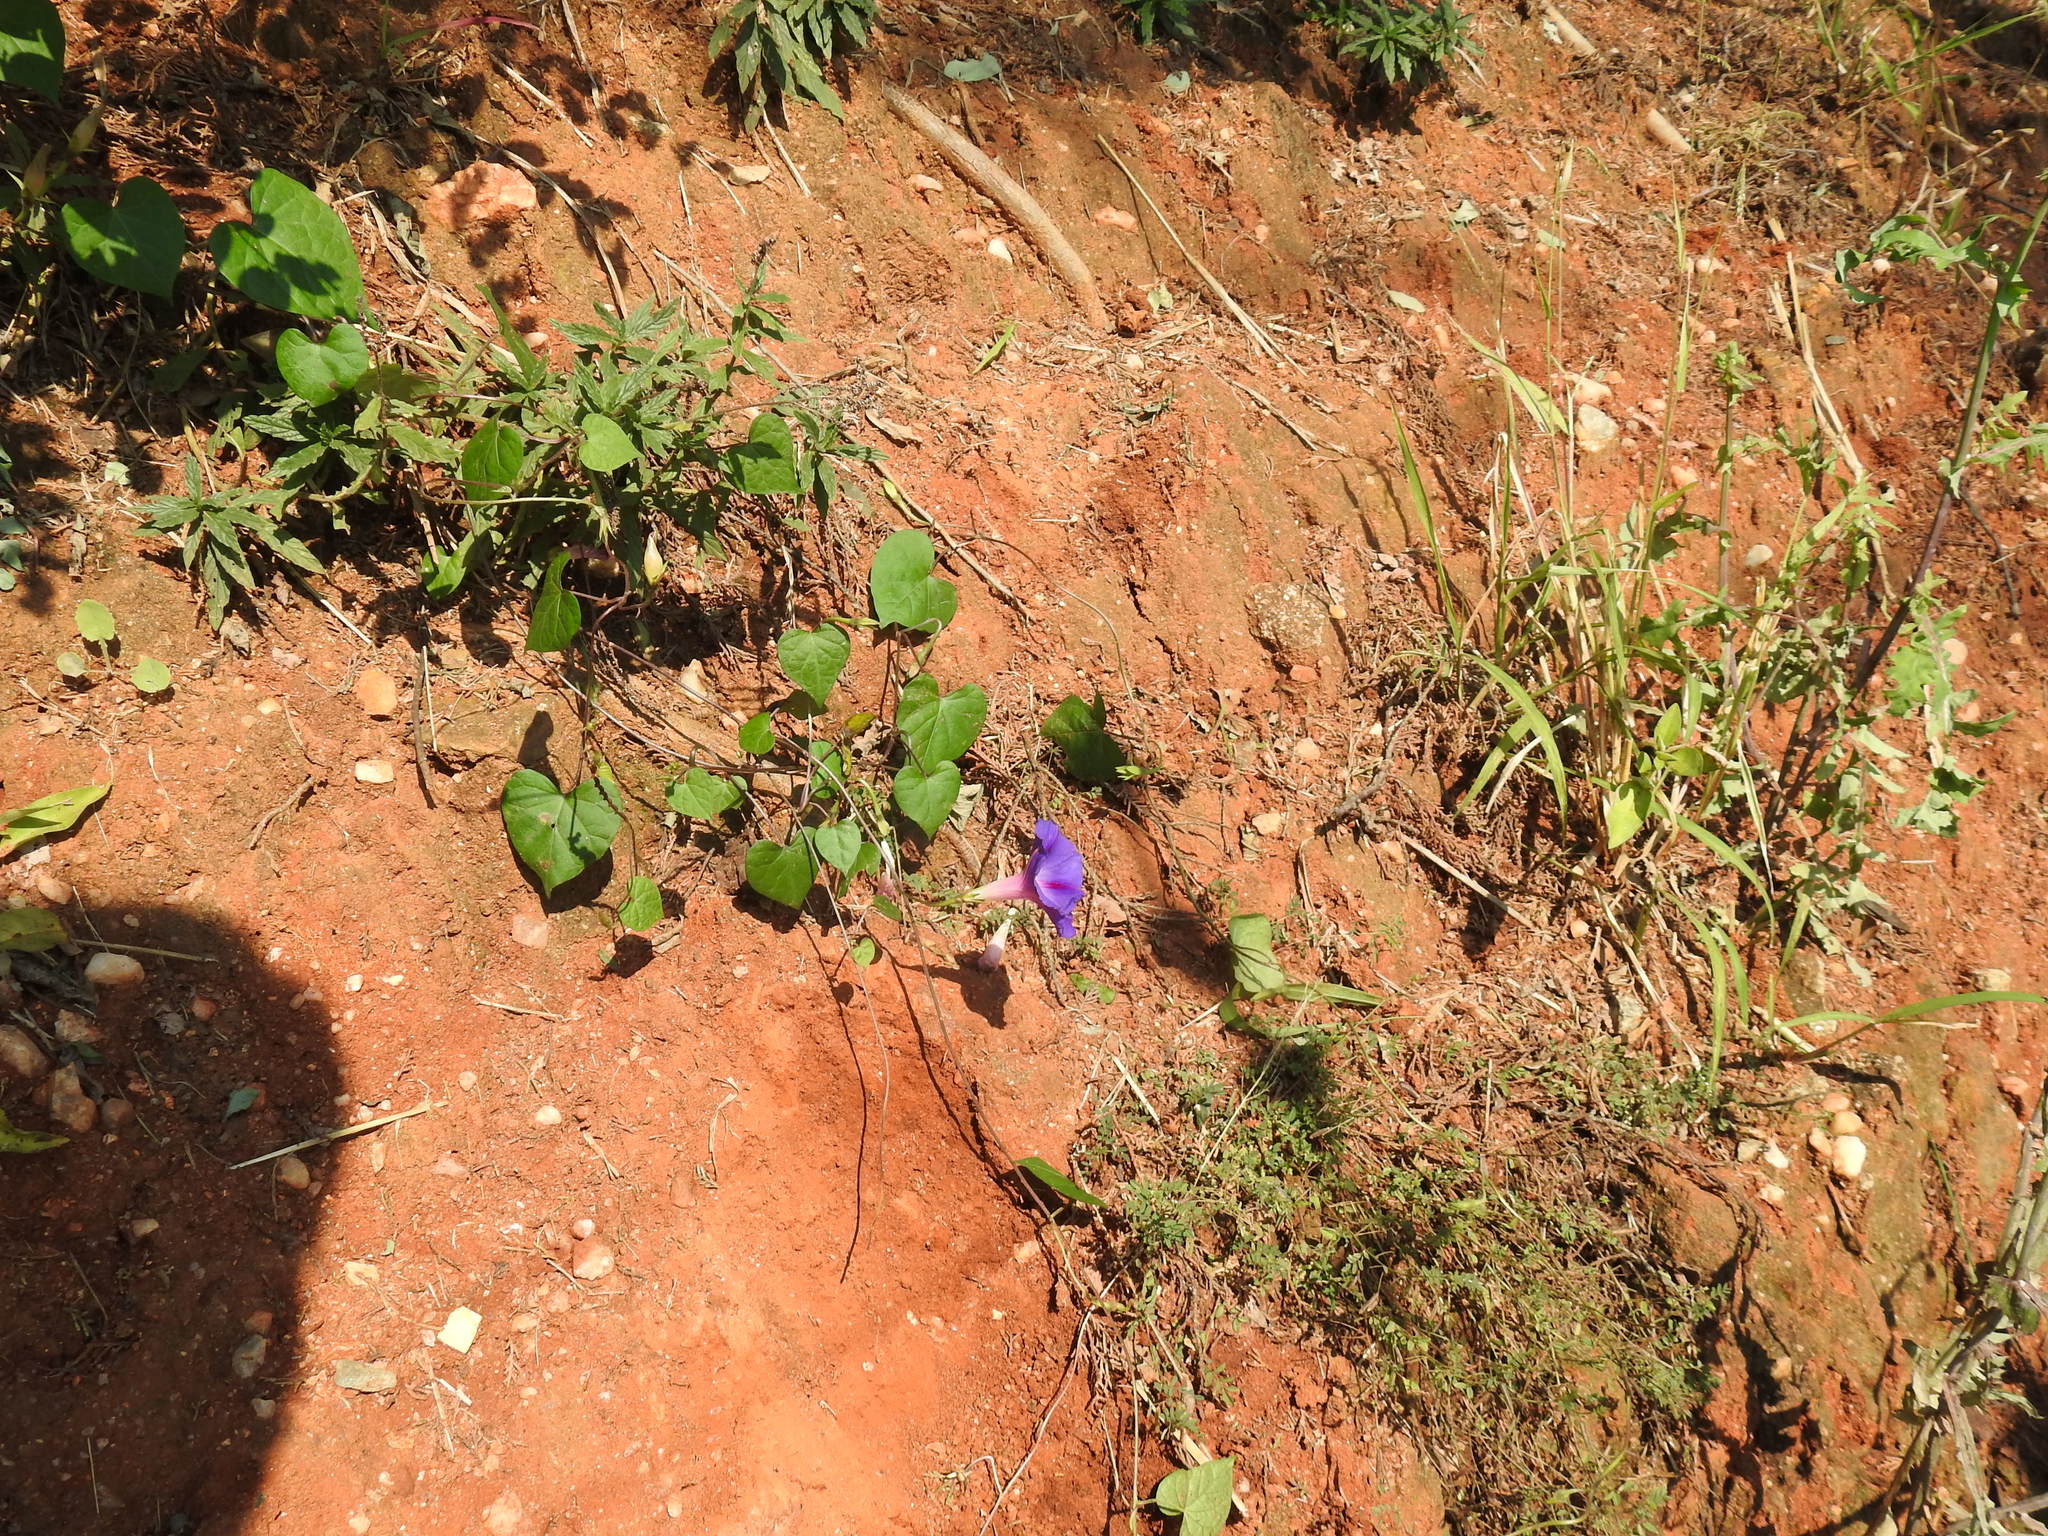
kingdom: Plantae
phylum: Tracheophyta
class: Magnoliopsida
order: Solanales
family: Convolvulaceae
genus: Ipomoea
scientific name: Ipomoea purpurea
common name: Common morning-glory
